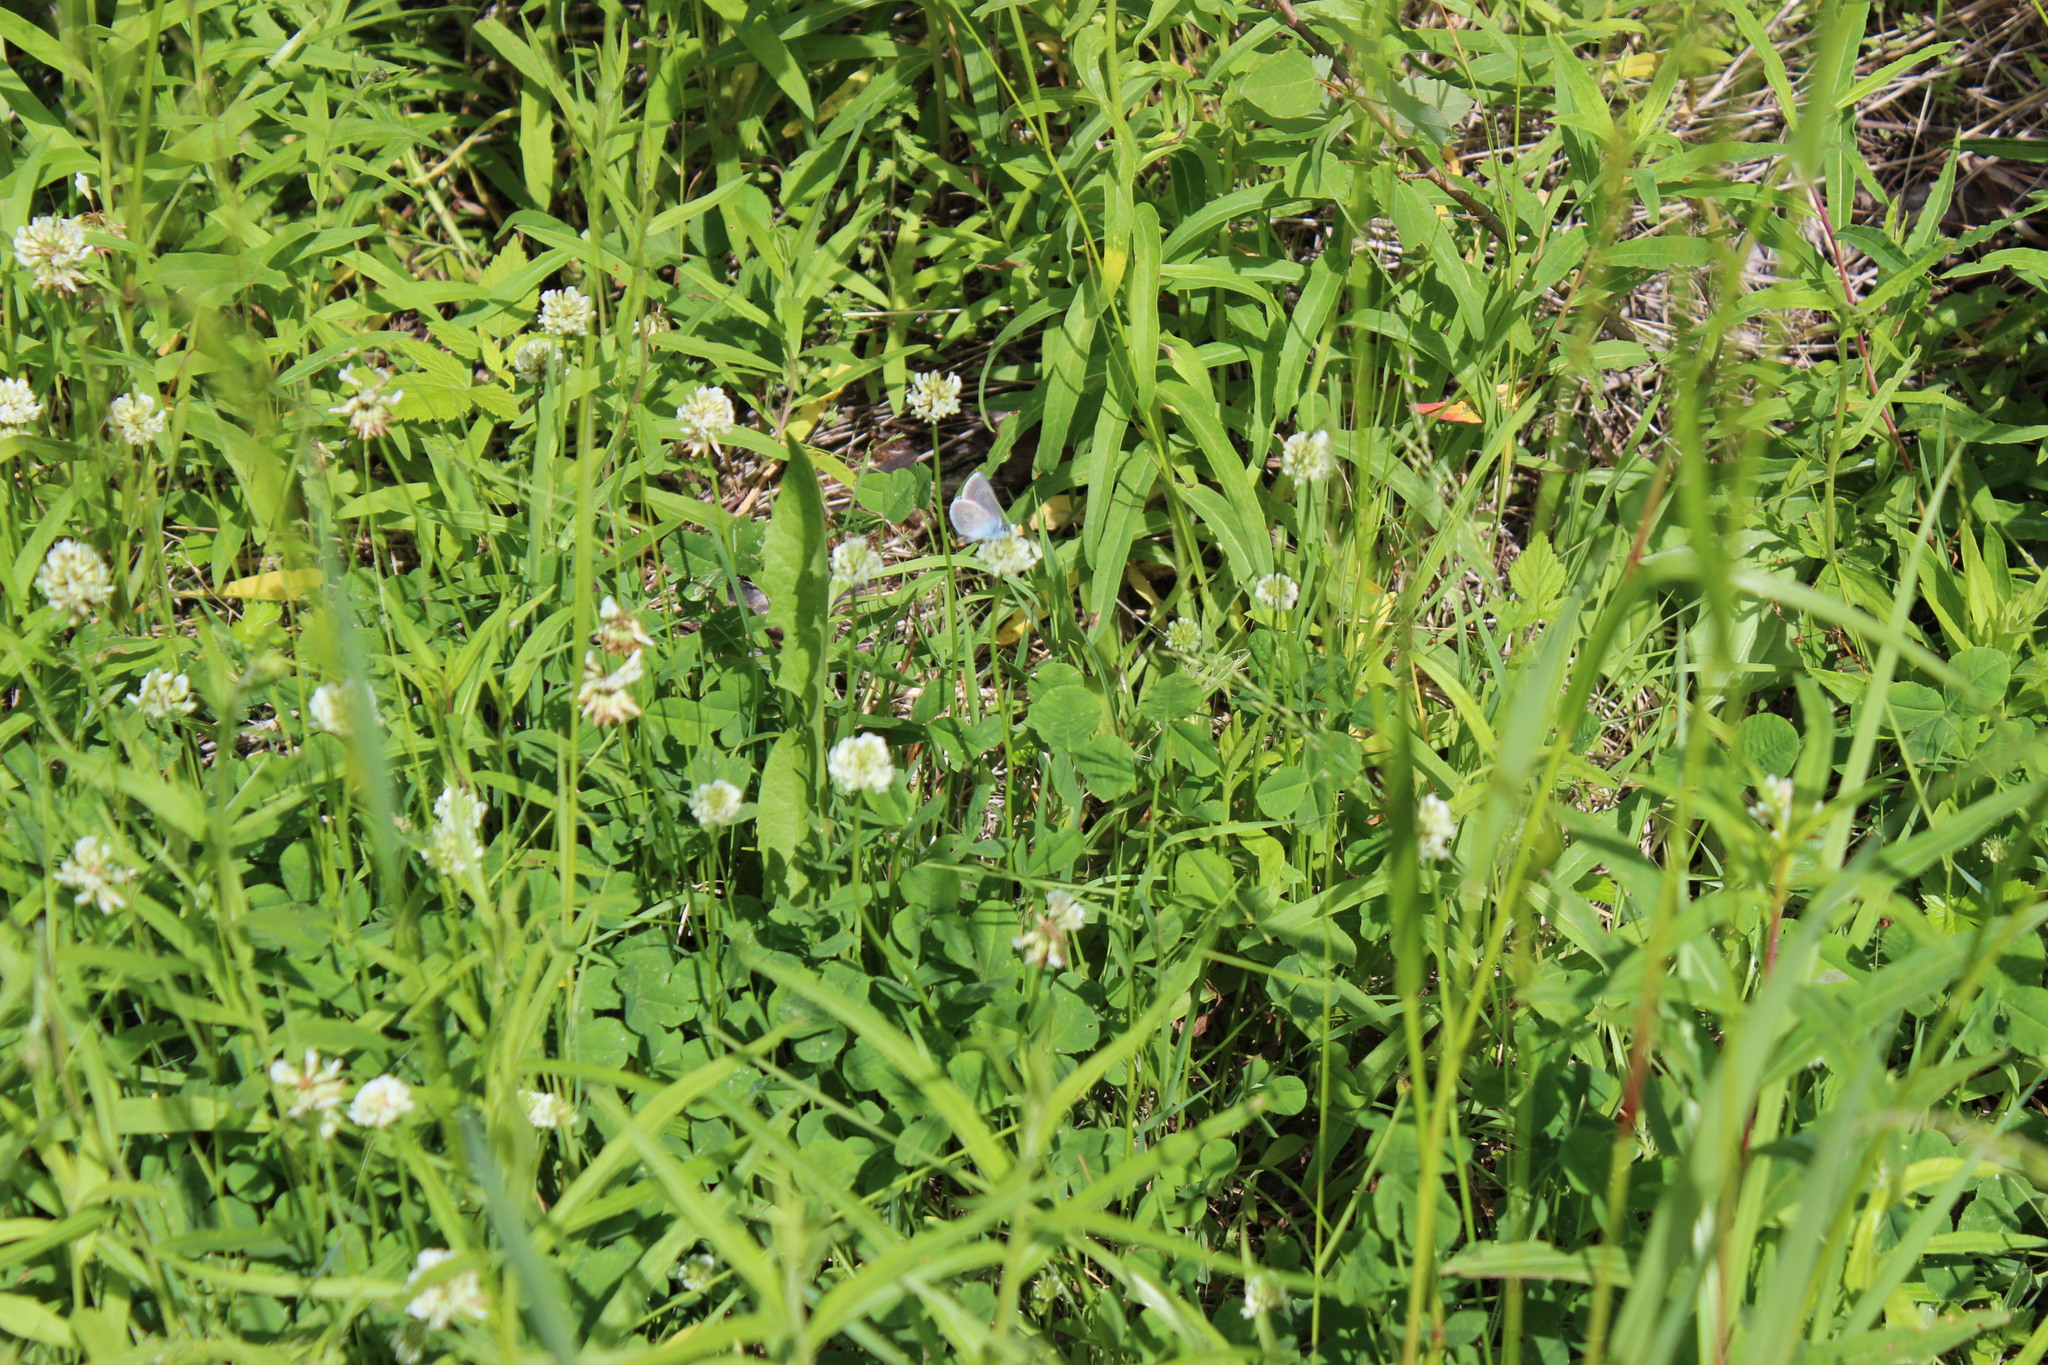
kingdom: Plantae
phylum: Tracheophyta
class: Magnoliopsida
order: Fabales
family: Fabaceae
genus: Trifolium
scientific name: Trifolium repens
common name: White clover
